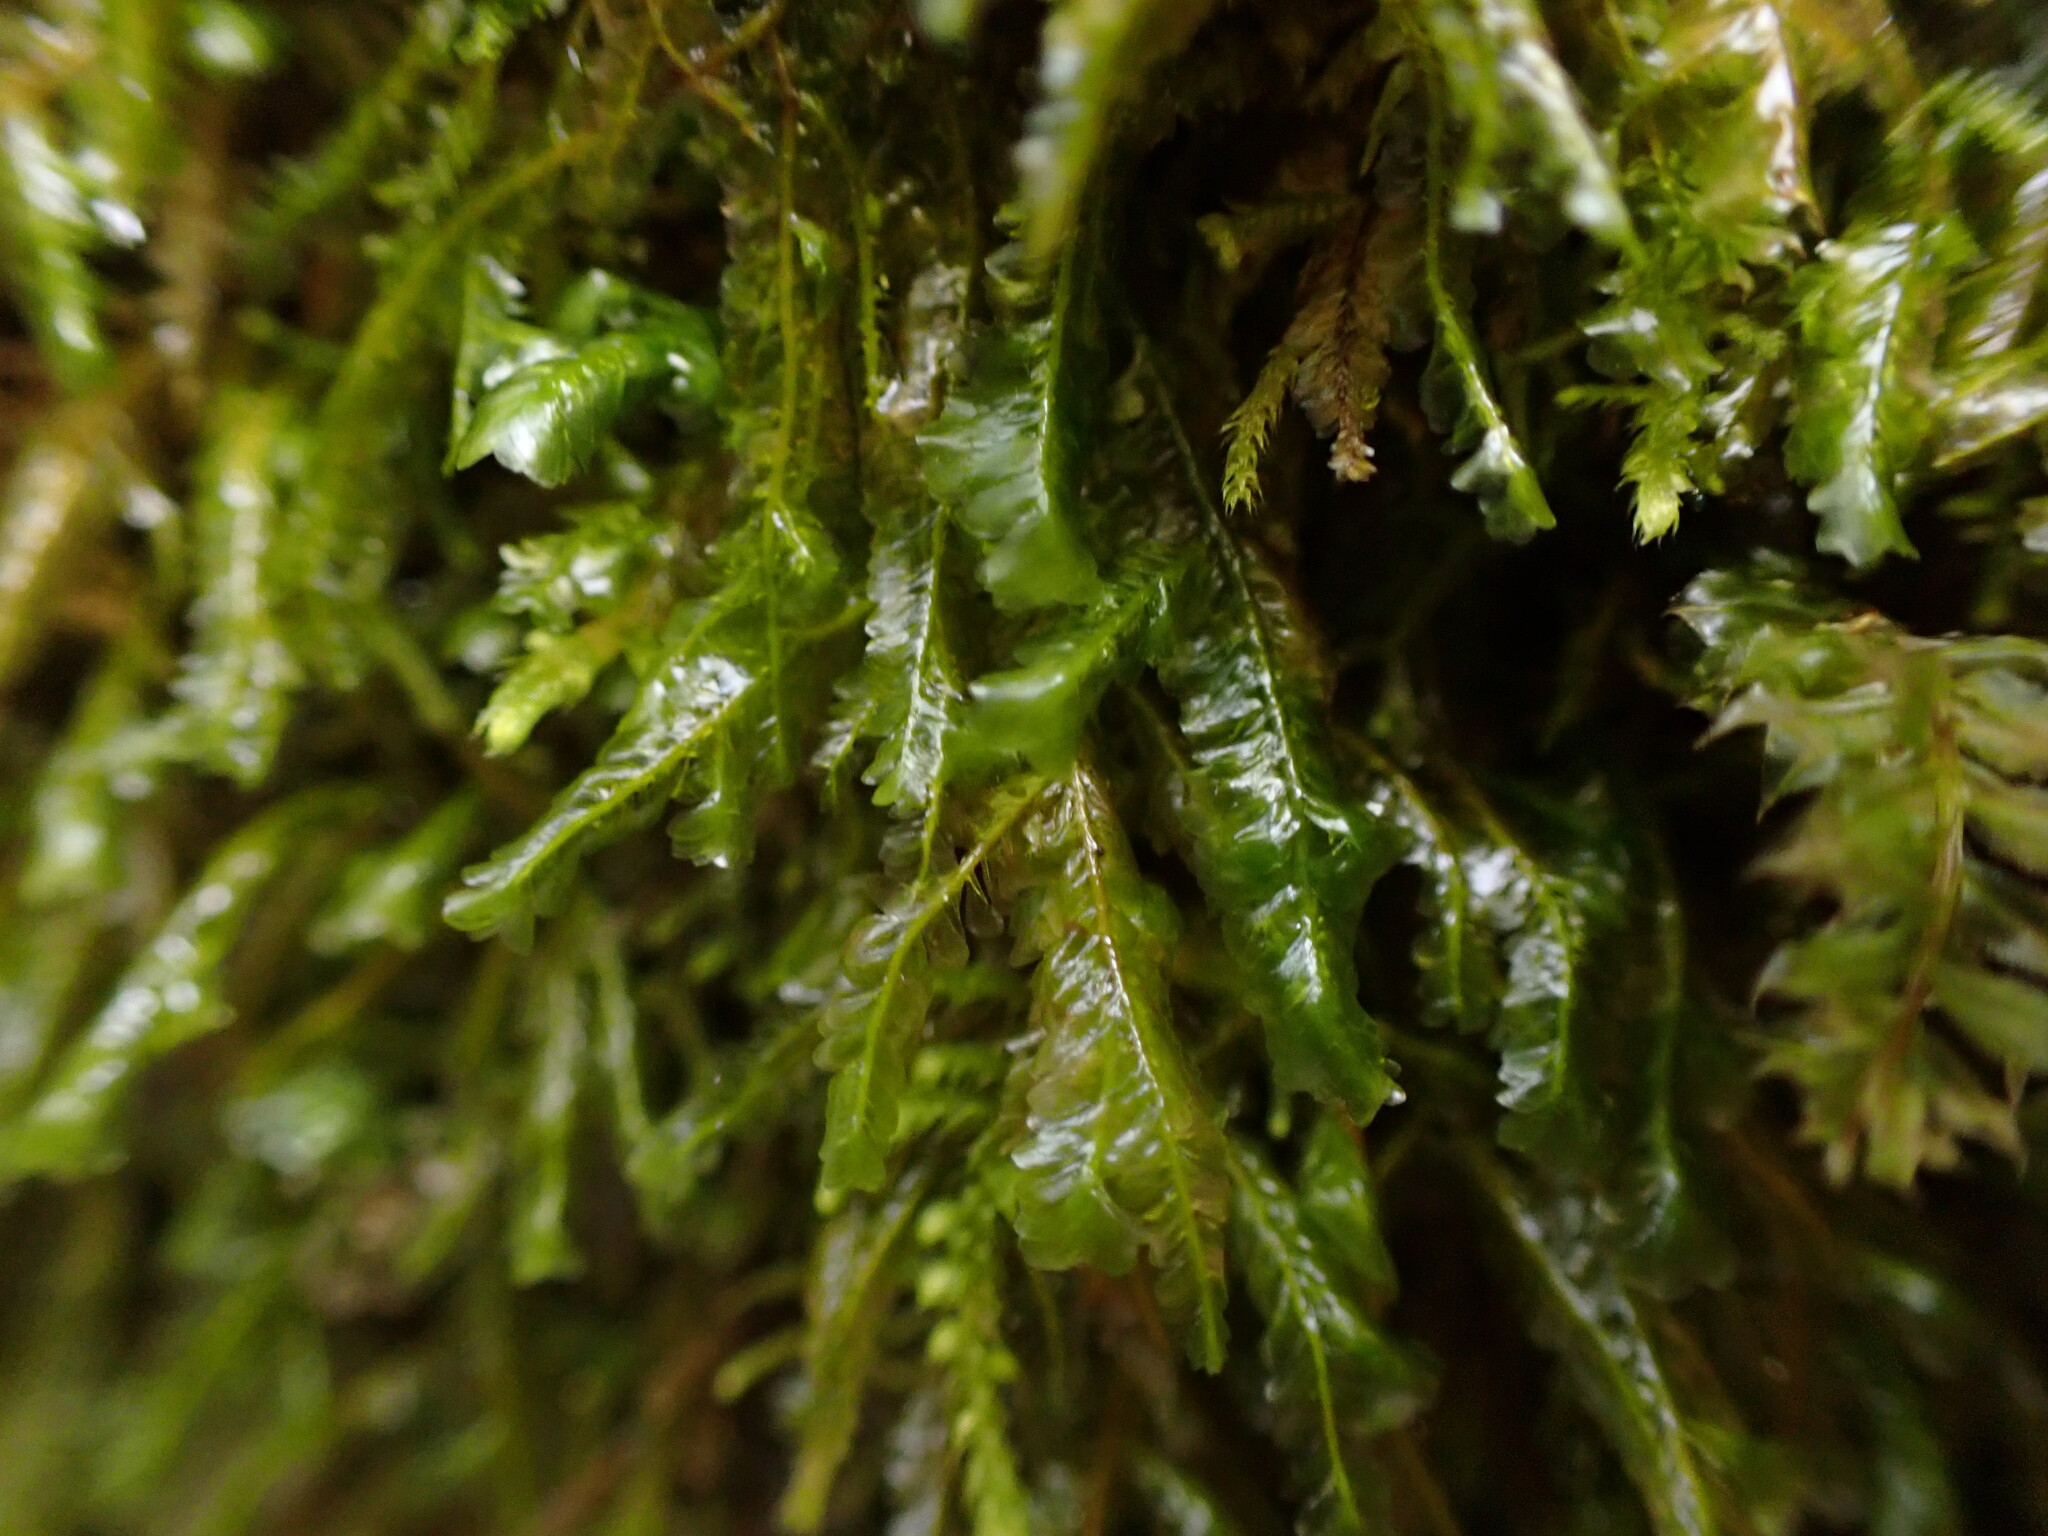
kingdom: Plantae
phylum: Bryophyta
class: Bryopsida
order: Hypnales
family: Neckeraceae
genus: Homalia
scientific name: Homalia trichomanoides
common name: Lime homalia moss
